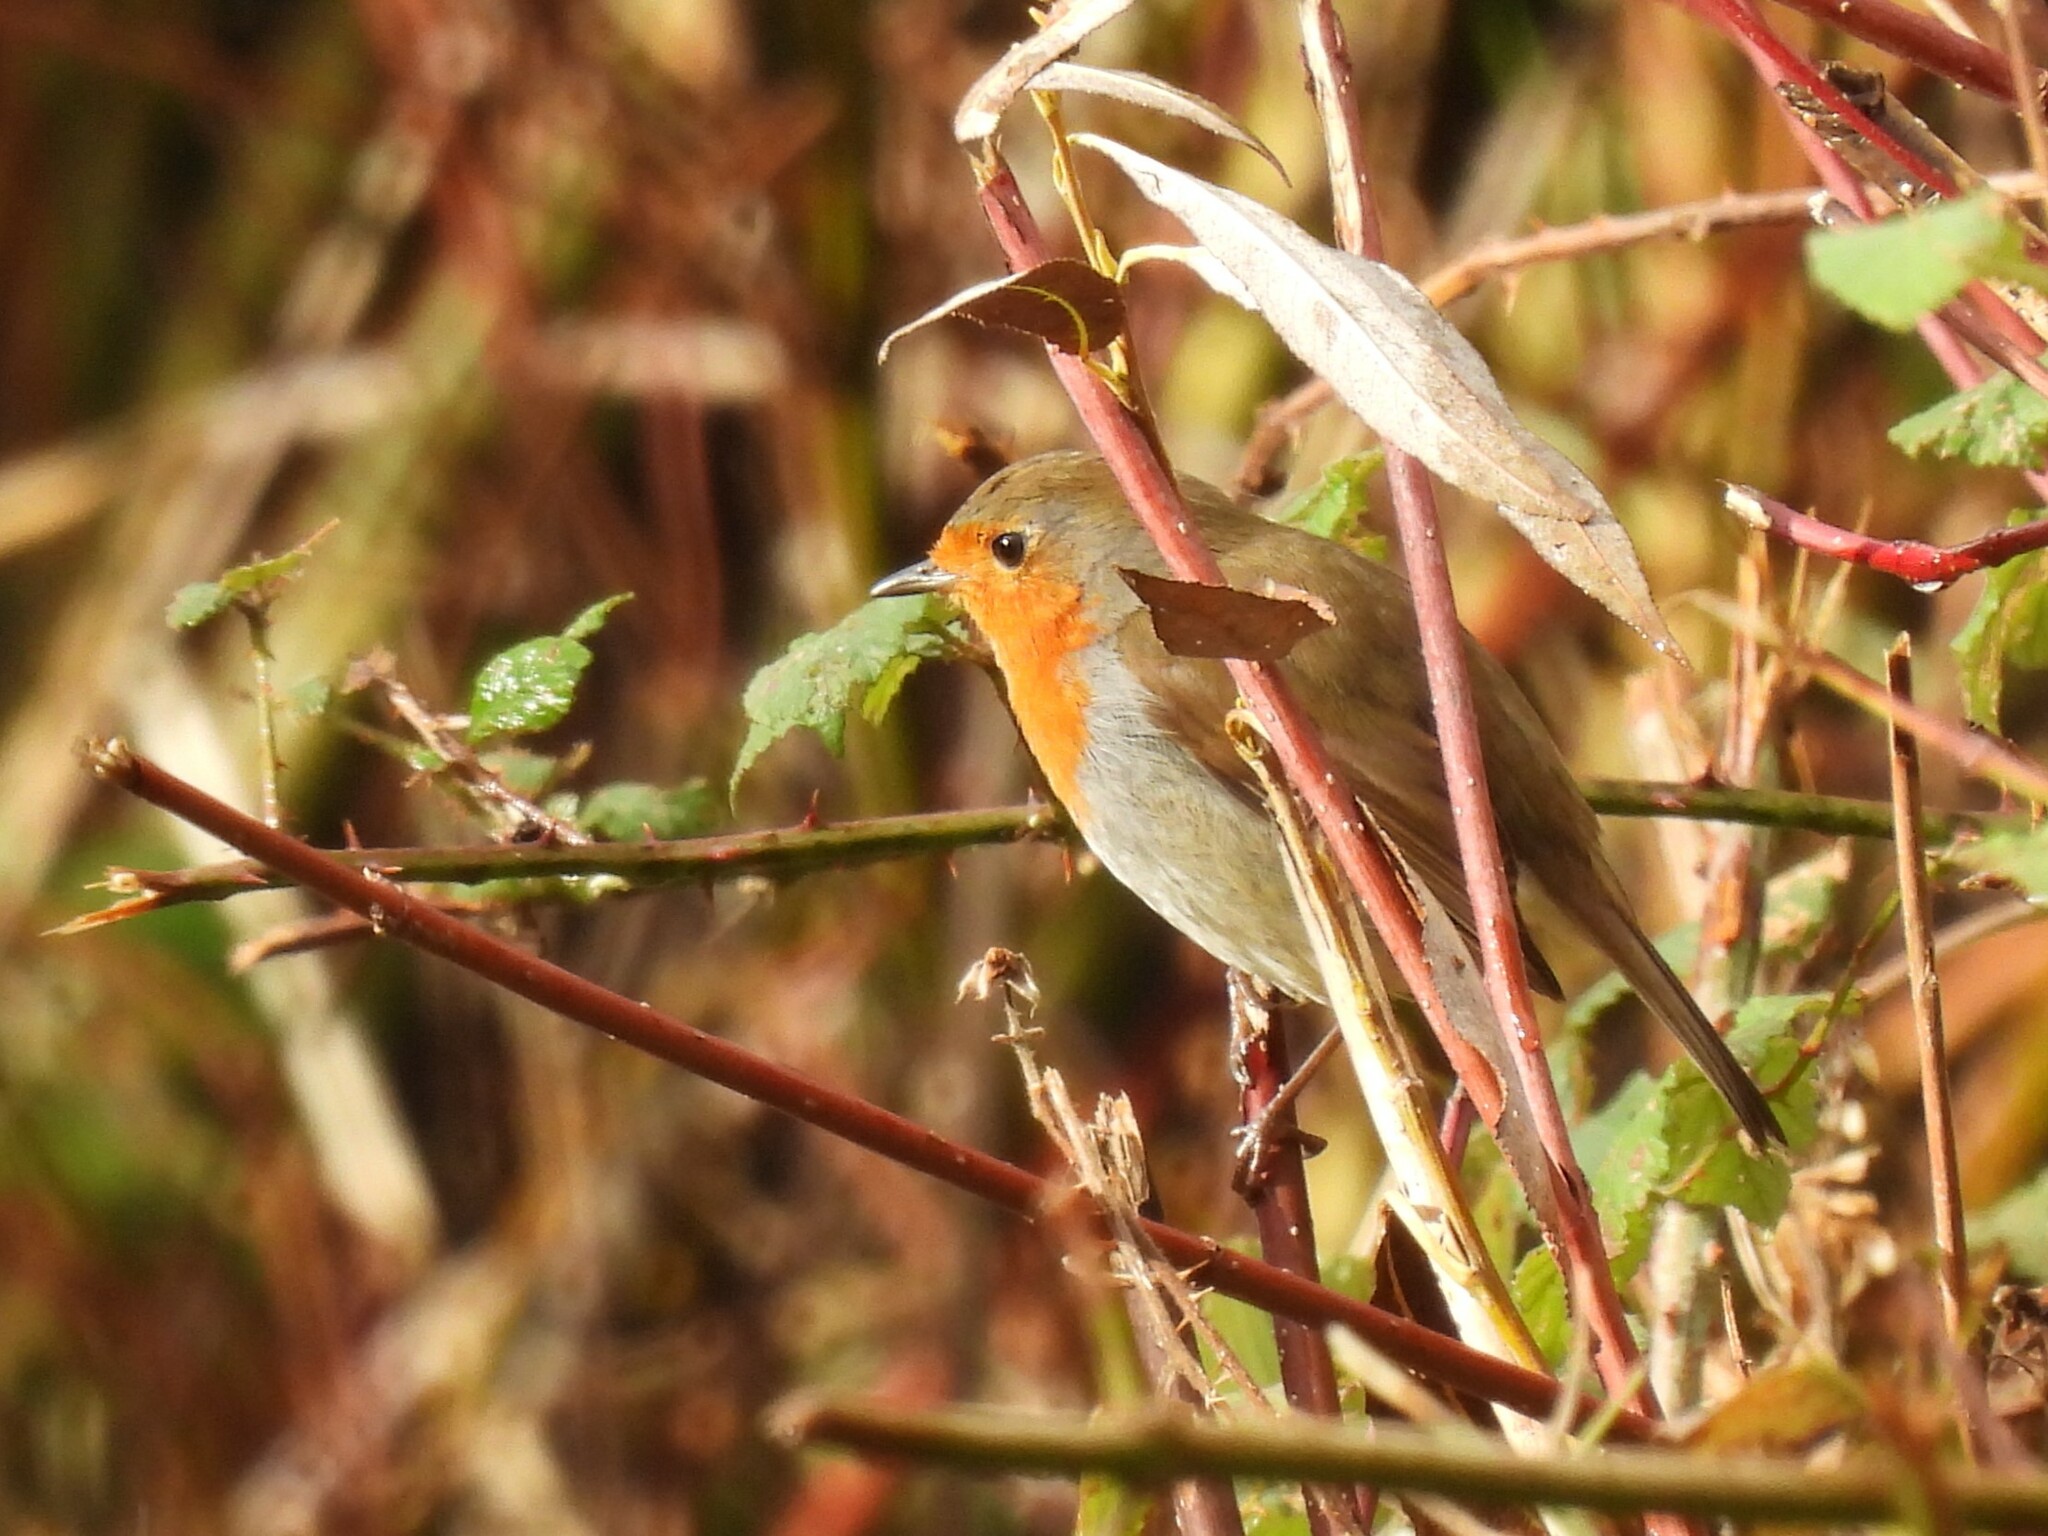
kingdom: Animalia
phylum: Chordata
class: Aves
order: Passeriformes
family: Muscicapidae
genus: Erithacus
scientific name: Erithacus rubecula
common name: European robin
